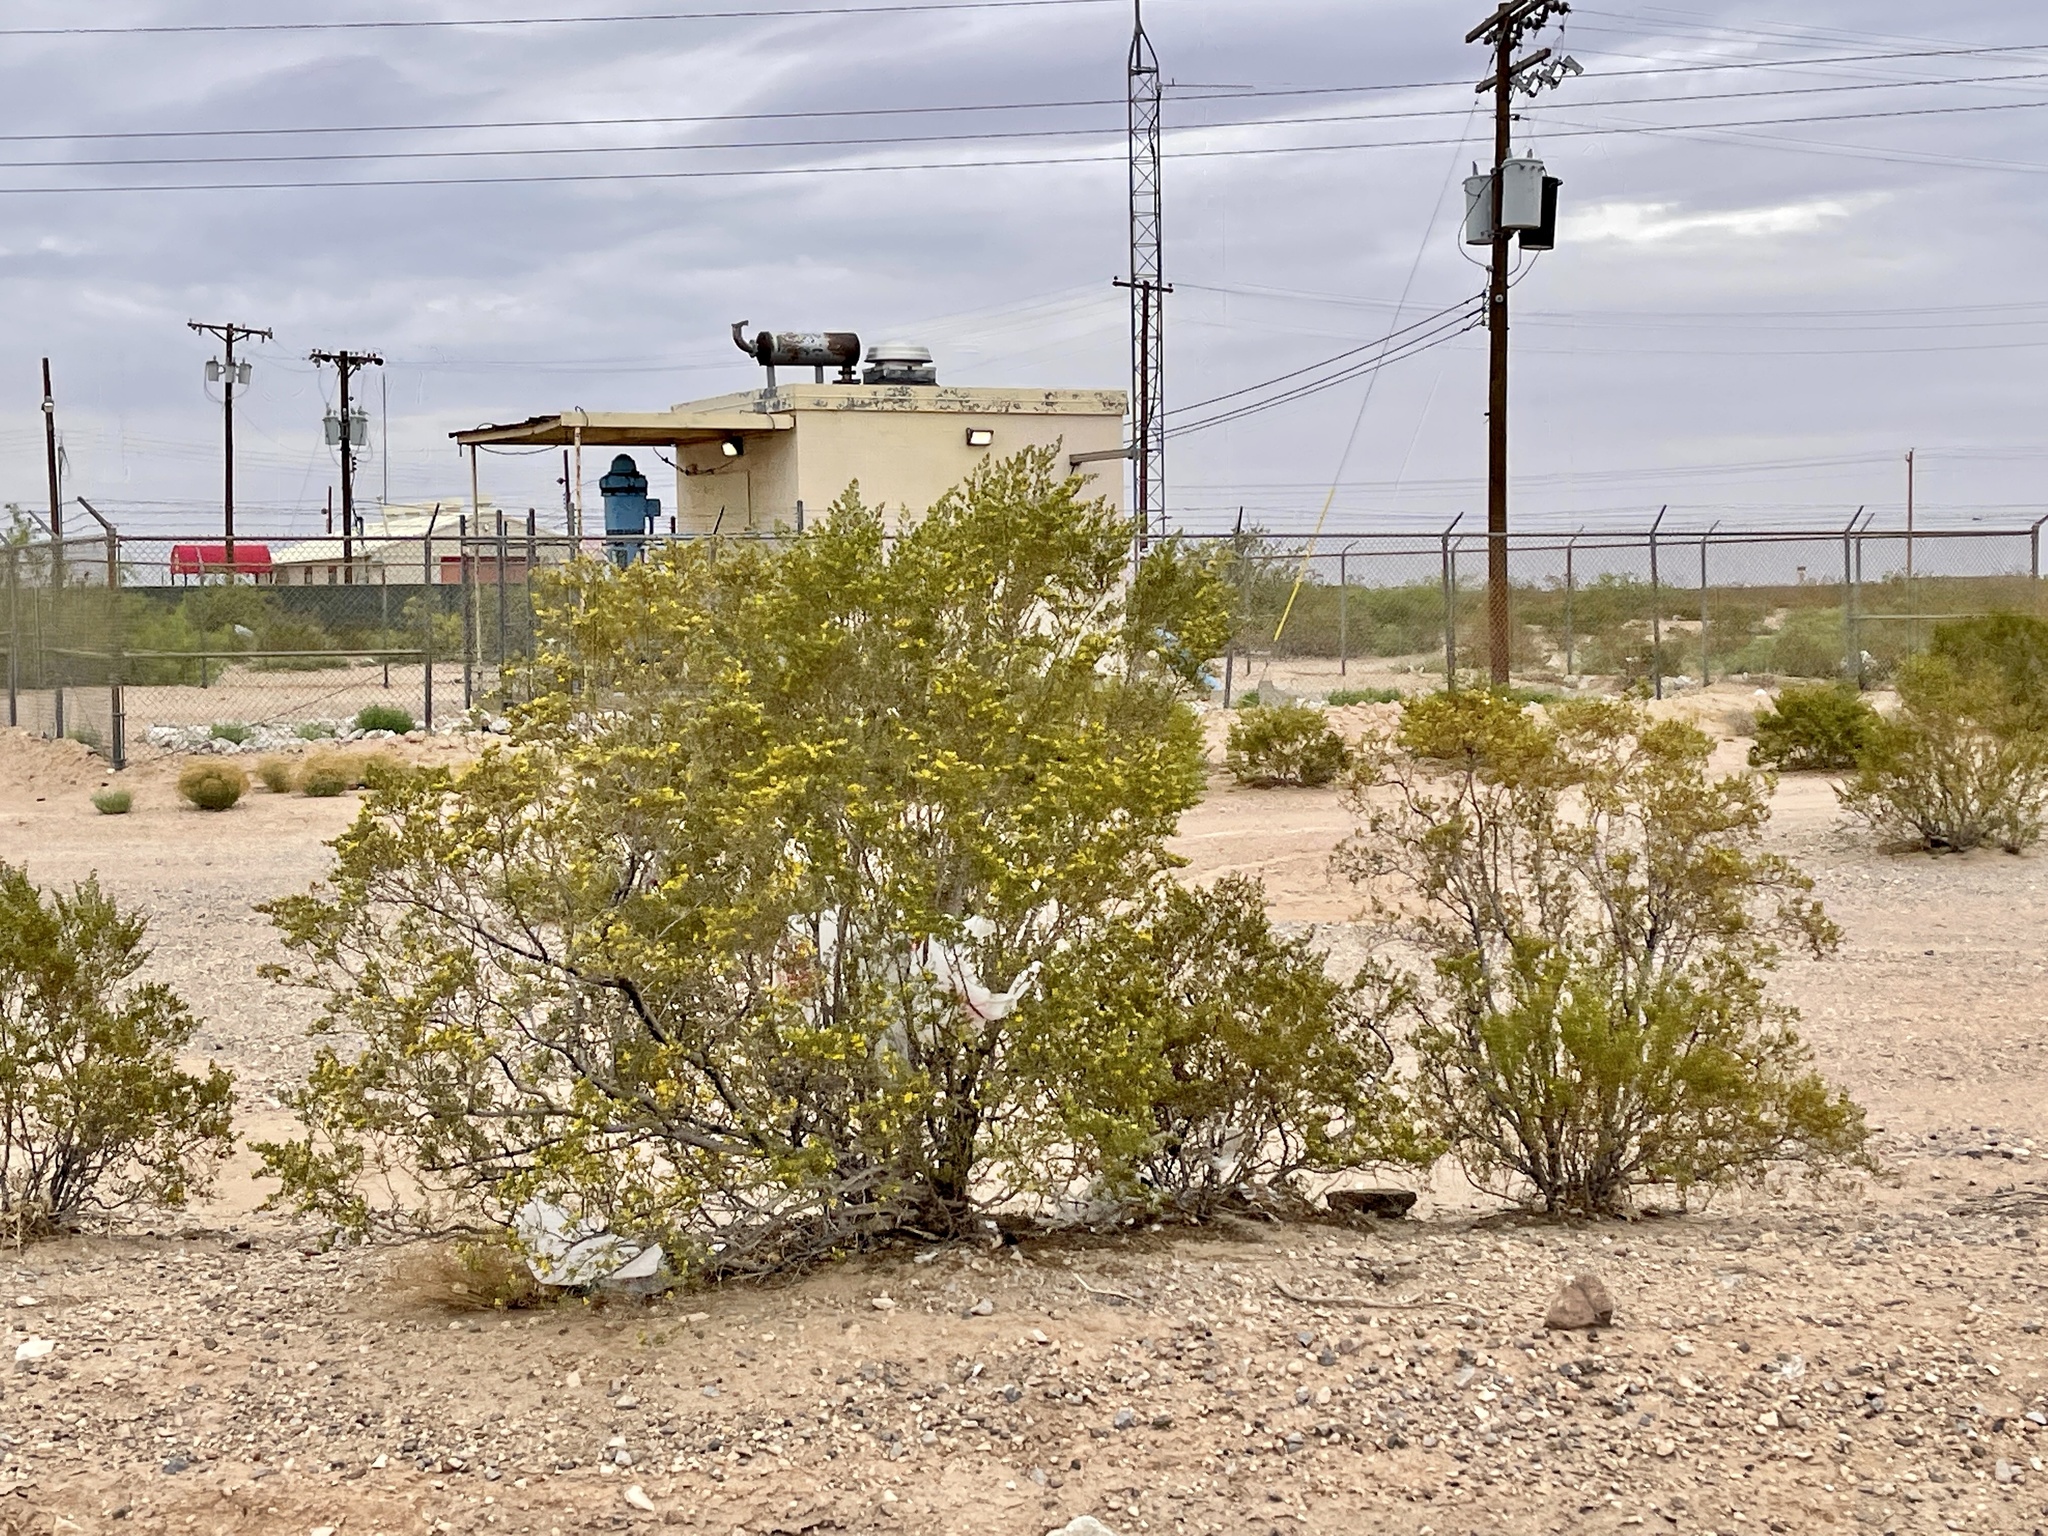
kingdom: Plantae
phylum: Tracheophyta
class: Magnoliopsida
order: Zygophyllales
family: Zygophyllaceae
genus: Larrea
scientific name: Larrea tridentata
